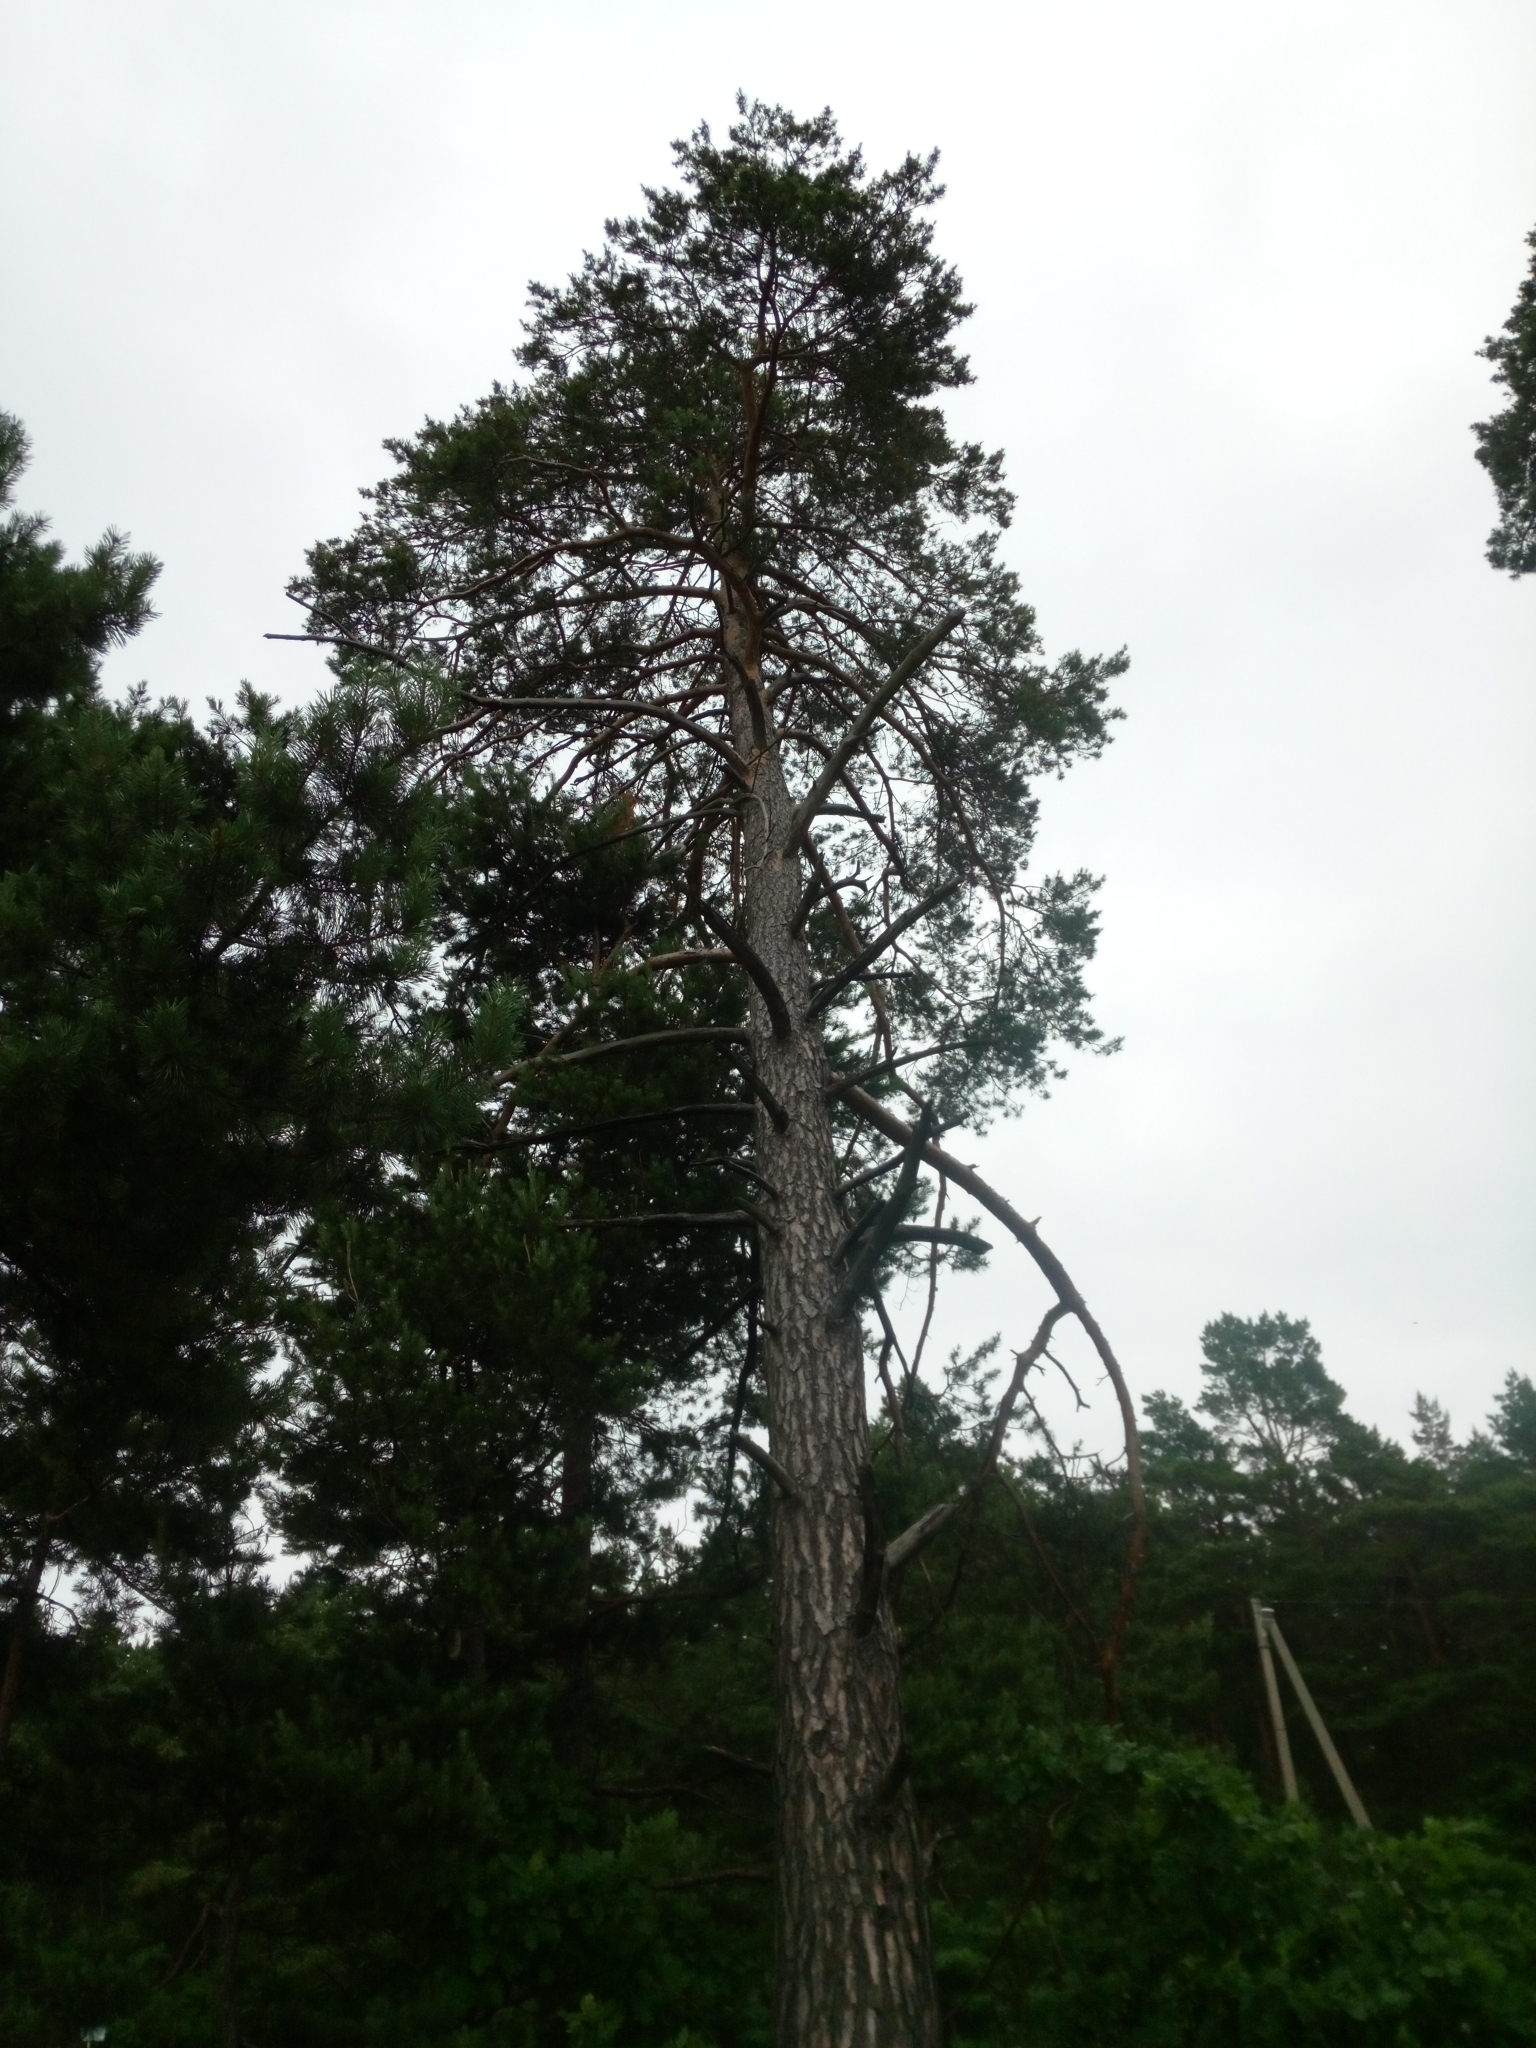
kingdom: Plantae
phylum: Tracheophyta
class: Pinopsida
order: Pinales
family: Pinaceae
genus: Pinus
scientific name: Pinus sylvestris
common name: Scots pine
